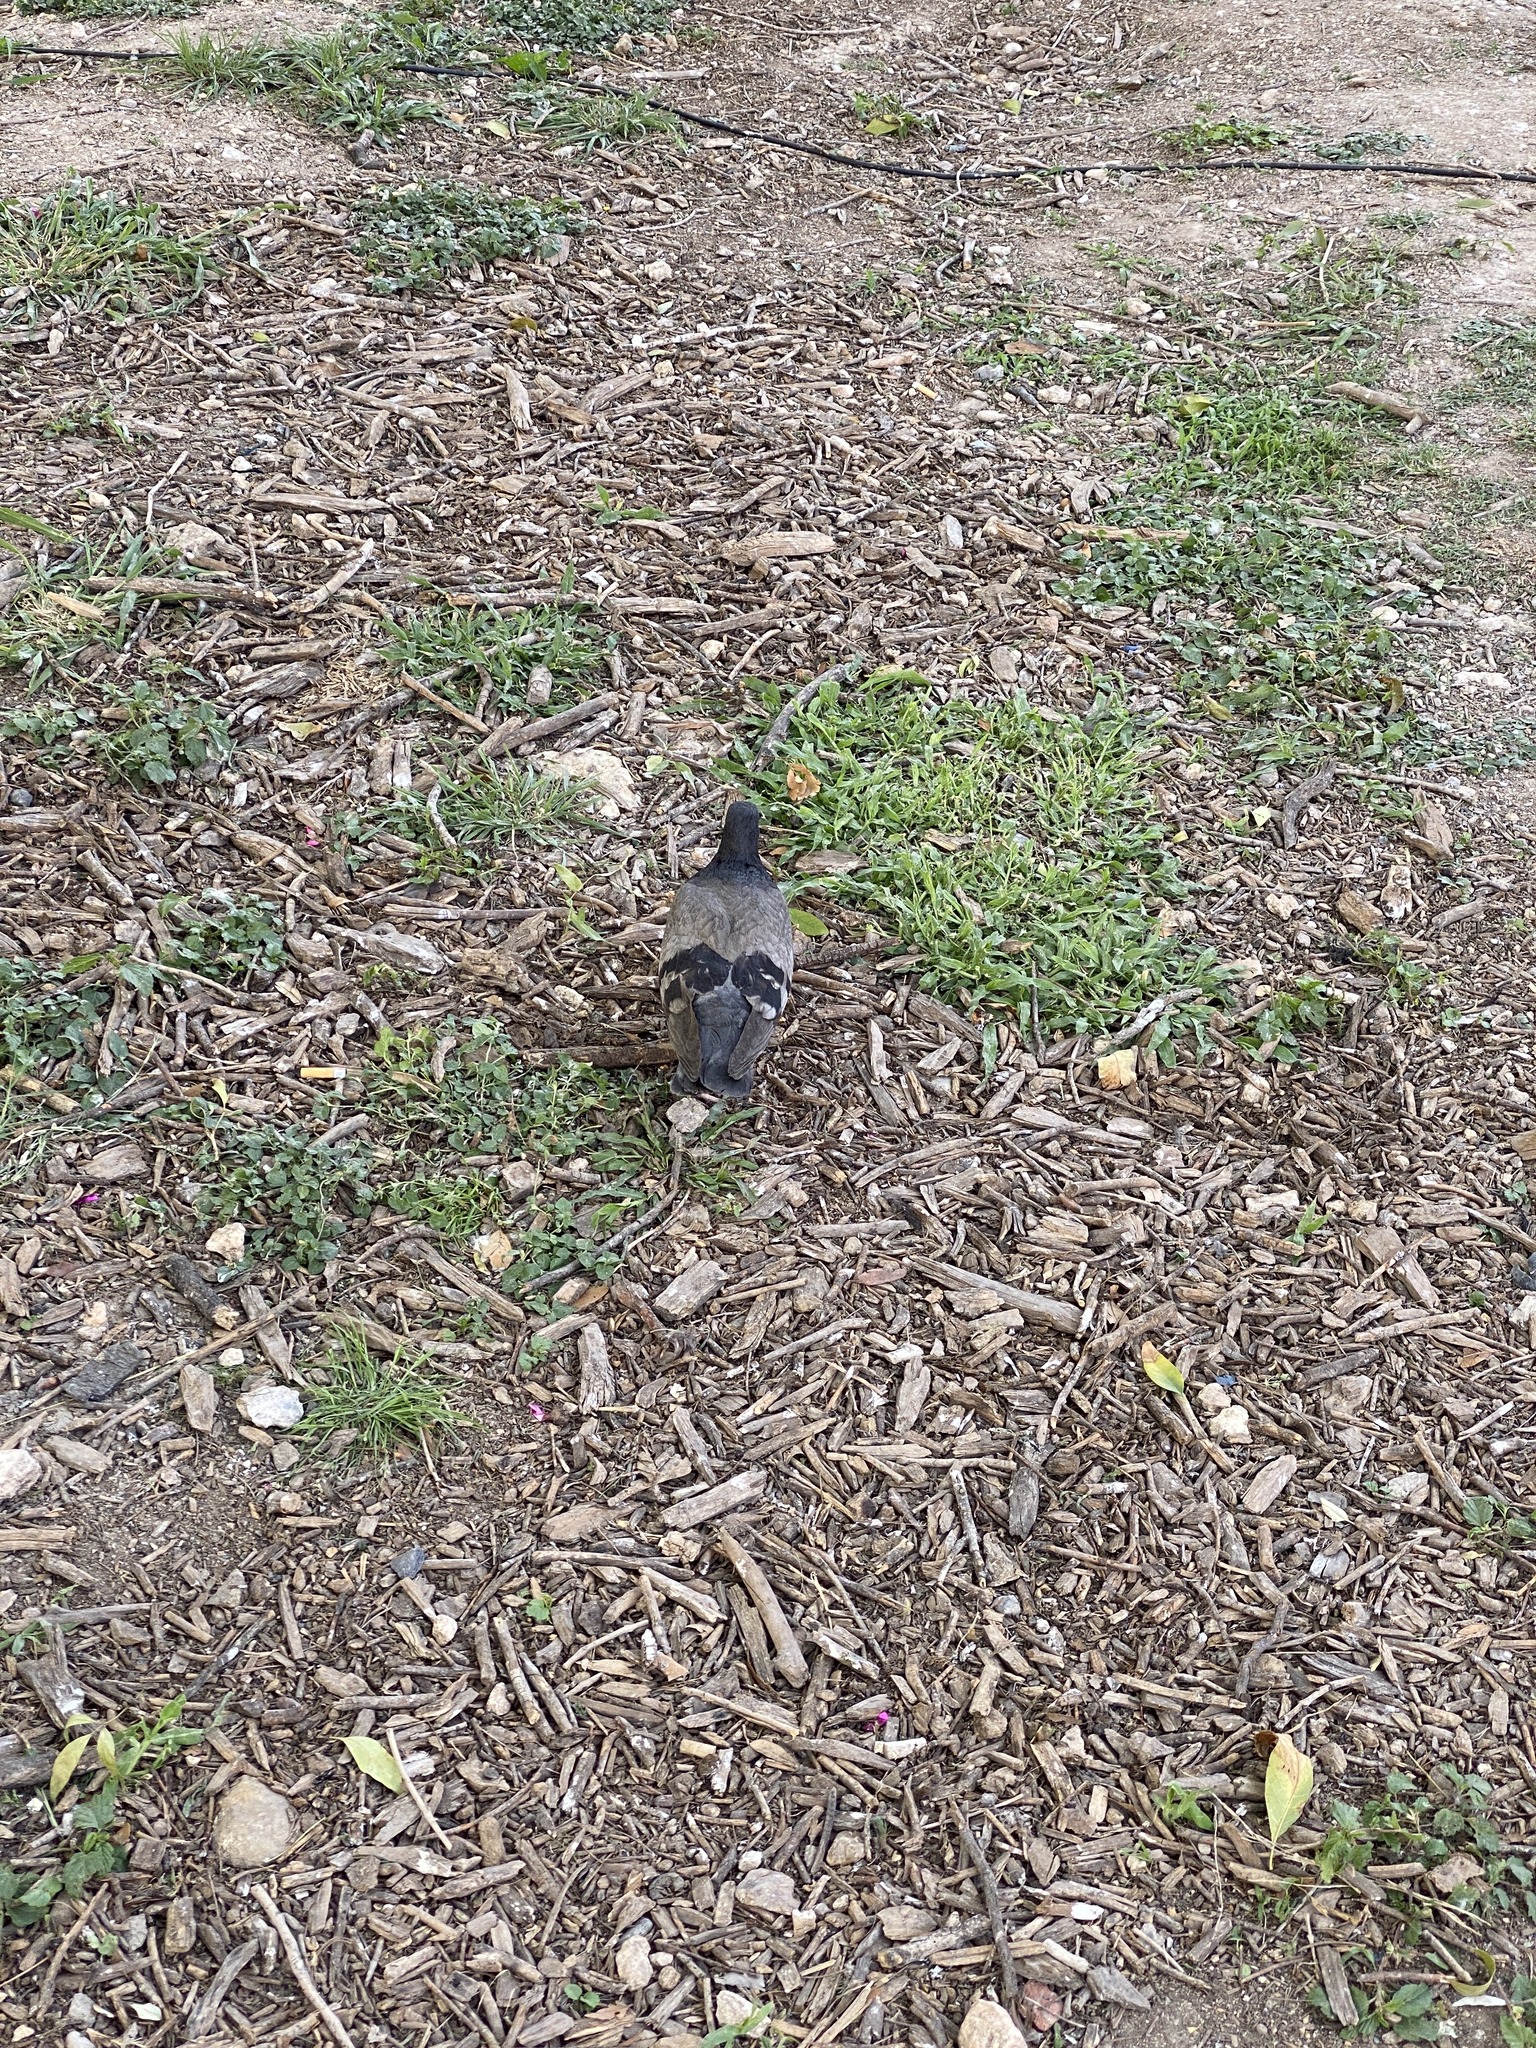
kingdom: Animalia
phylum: Chordata
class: Aves
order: Columbiformes
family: Columbidae
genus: Columba
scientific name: Columba livia
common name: Rock pigeon
